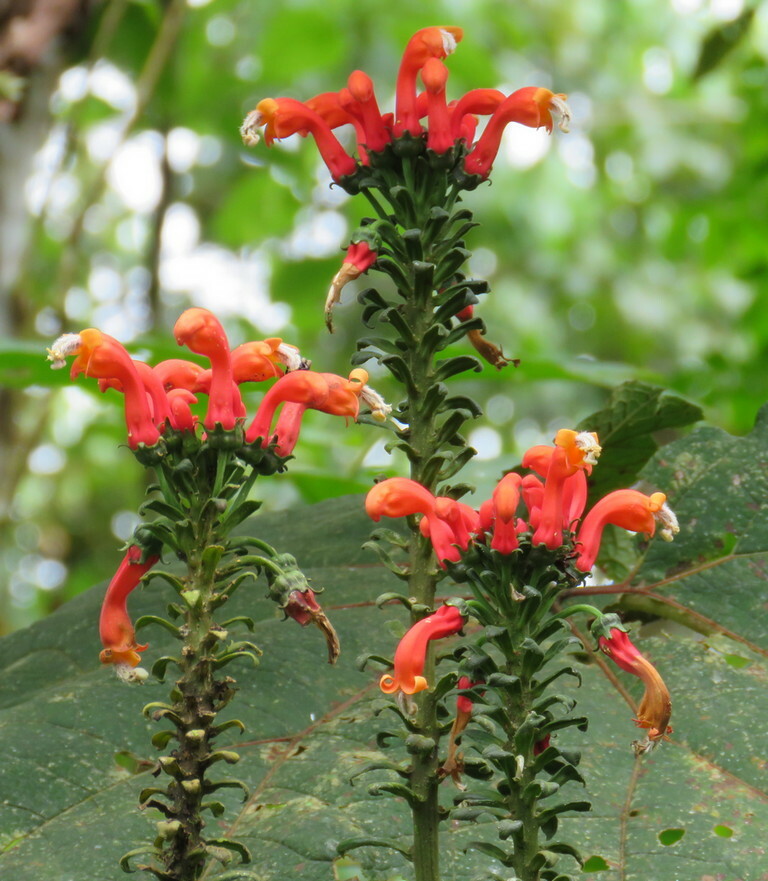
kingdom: Plantae
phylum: Tracheophyta
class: Magnoliopsida
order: Asterales
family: Campanulaceae
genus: Centropogon
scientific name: Centropogon granulosus
